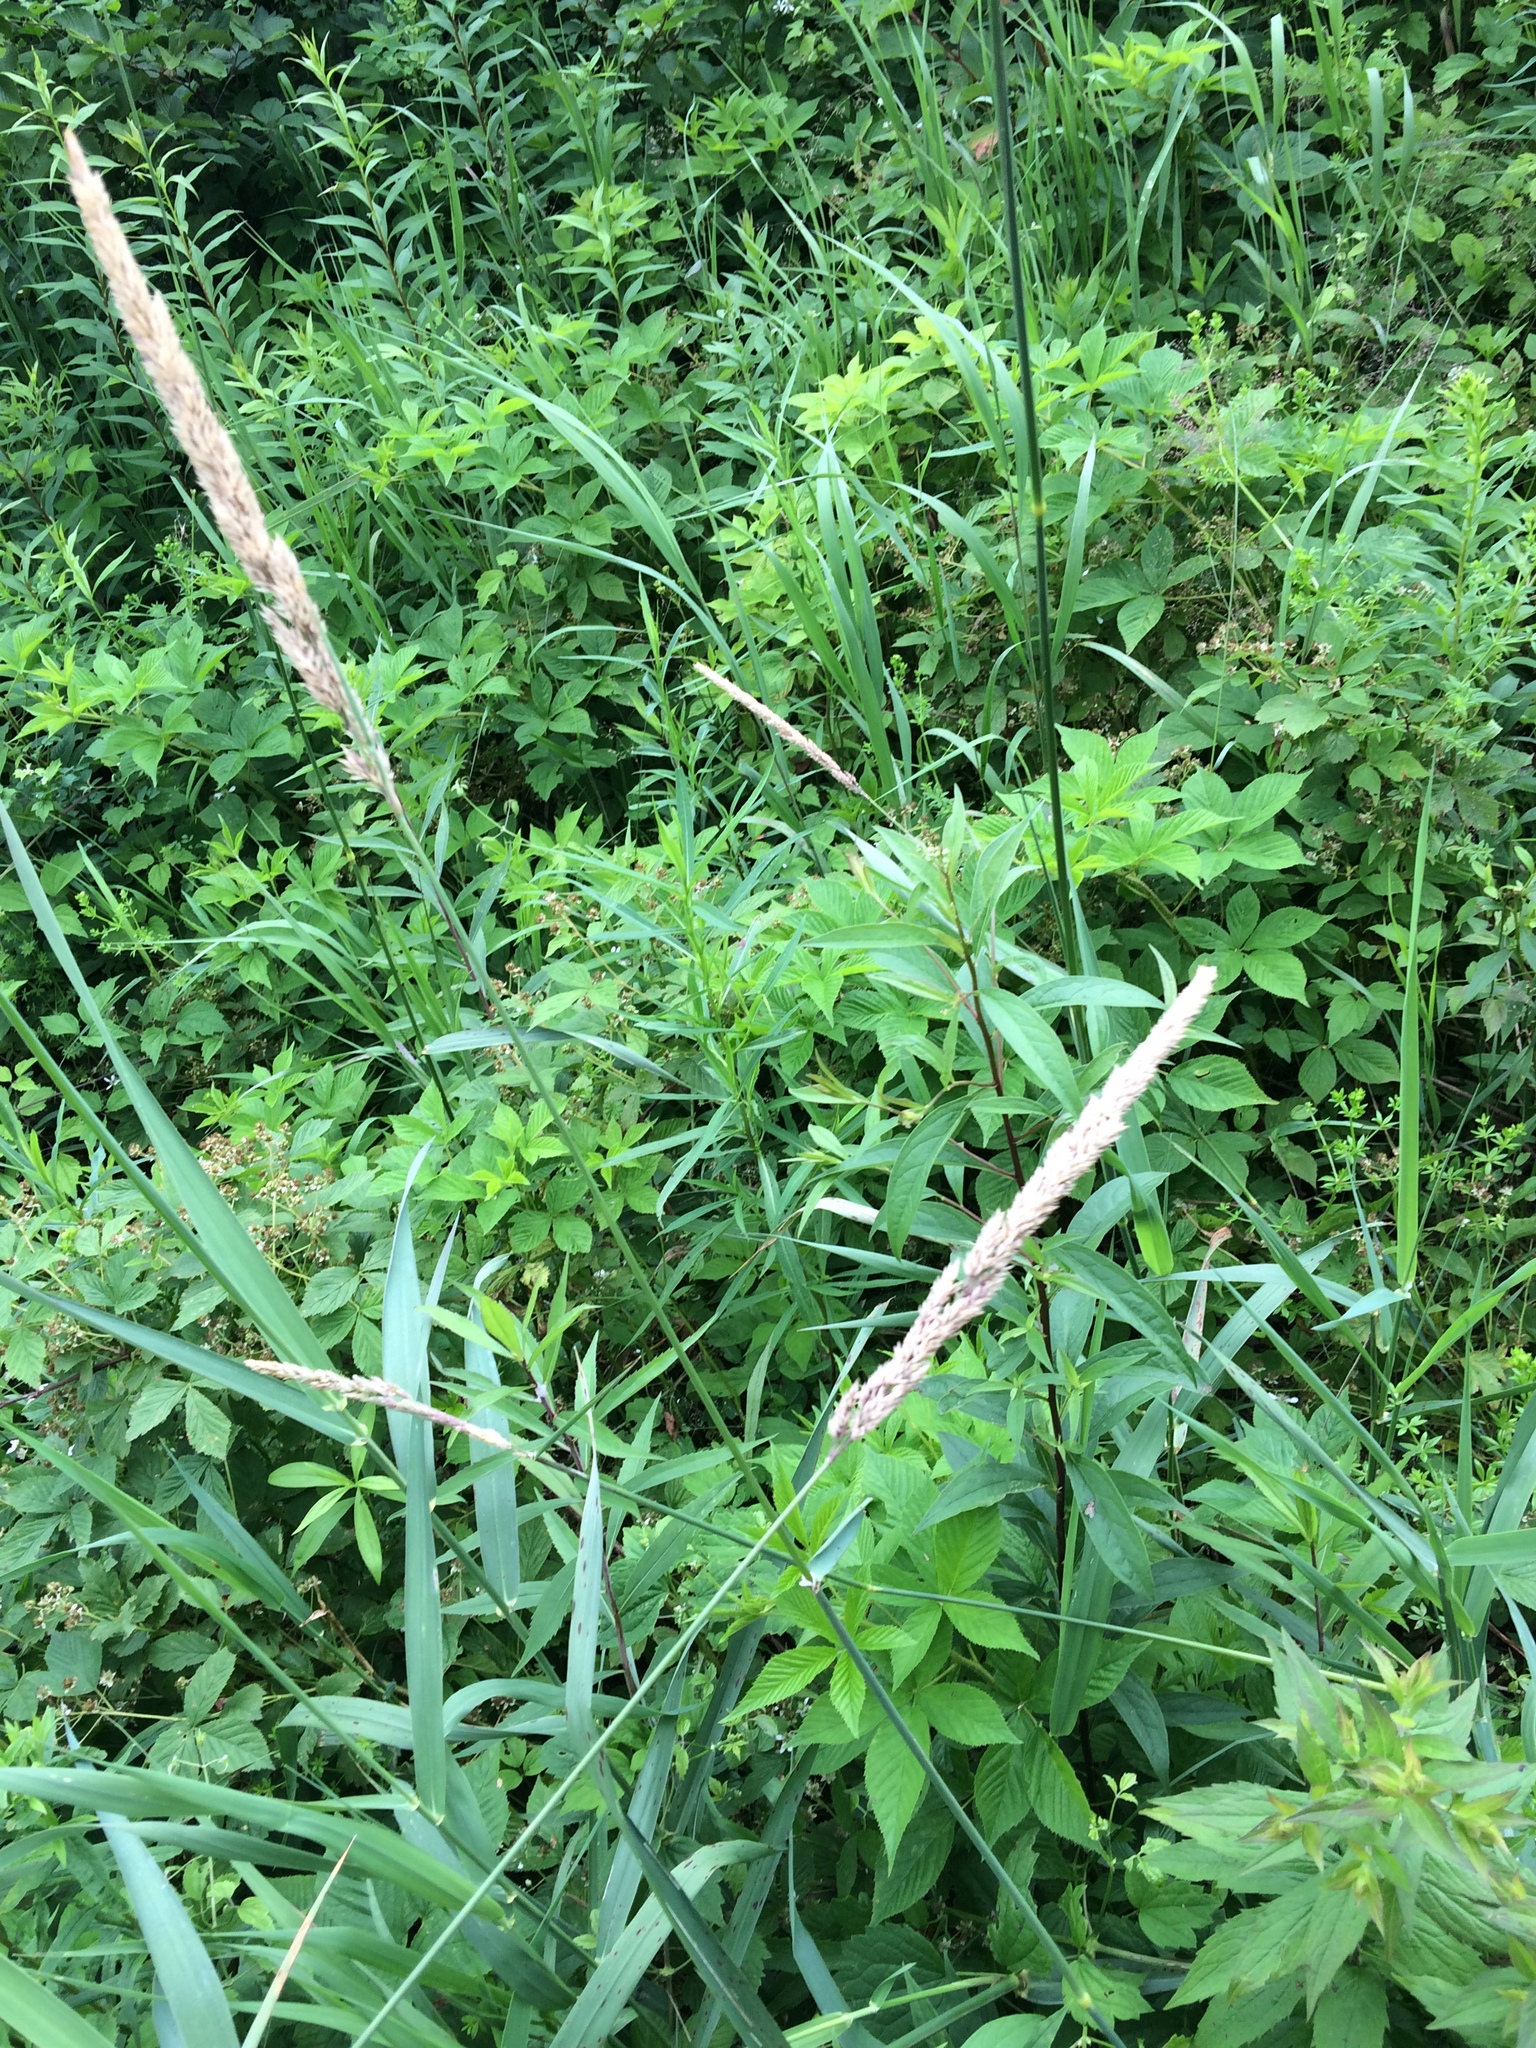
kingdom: Plantae
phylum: Tracheophyta
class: Liliopsida
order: Poales
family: Poaceae
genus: Phalaris
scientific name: Phalaris arundinacea
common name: Reed canary-grass
